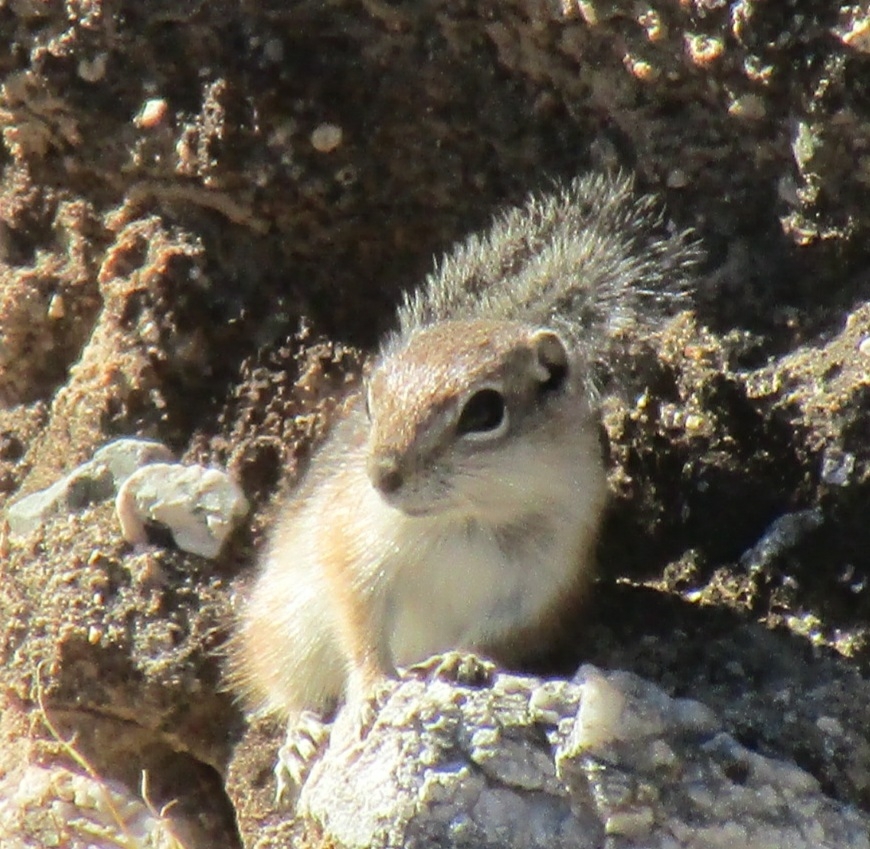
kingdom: Animalia
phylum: Chordata
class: Mammalia
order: Rodentia
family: Sciuridae
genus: Ammospermophilus
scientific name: Ammospermophilus harrisii
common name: Harris's antelope squirrel
